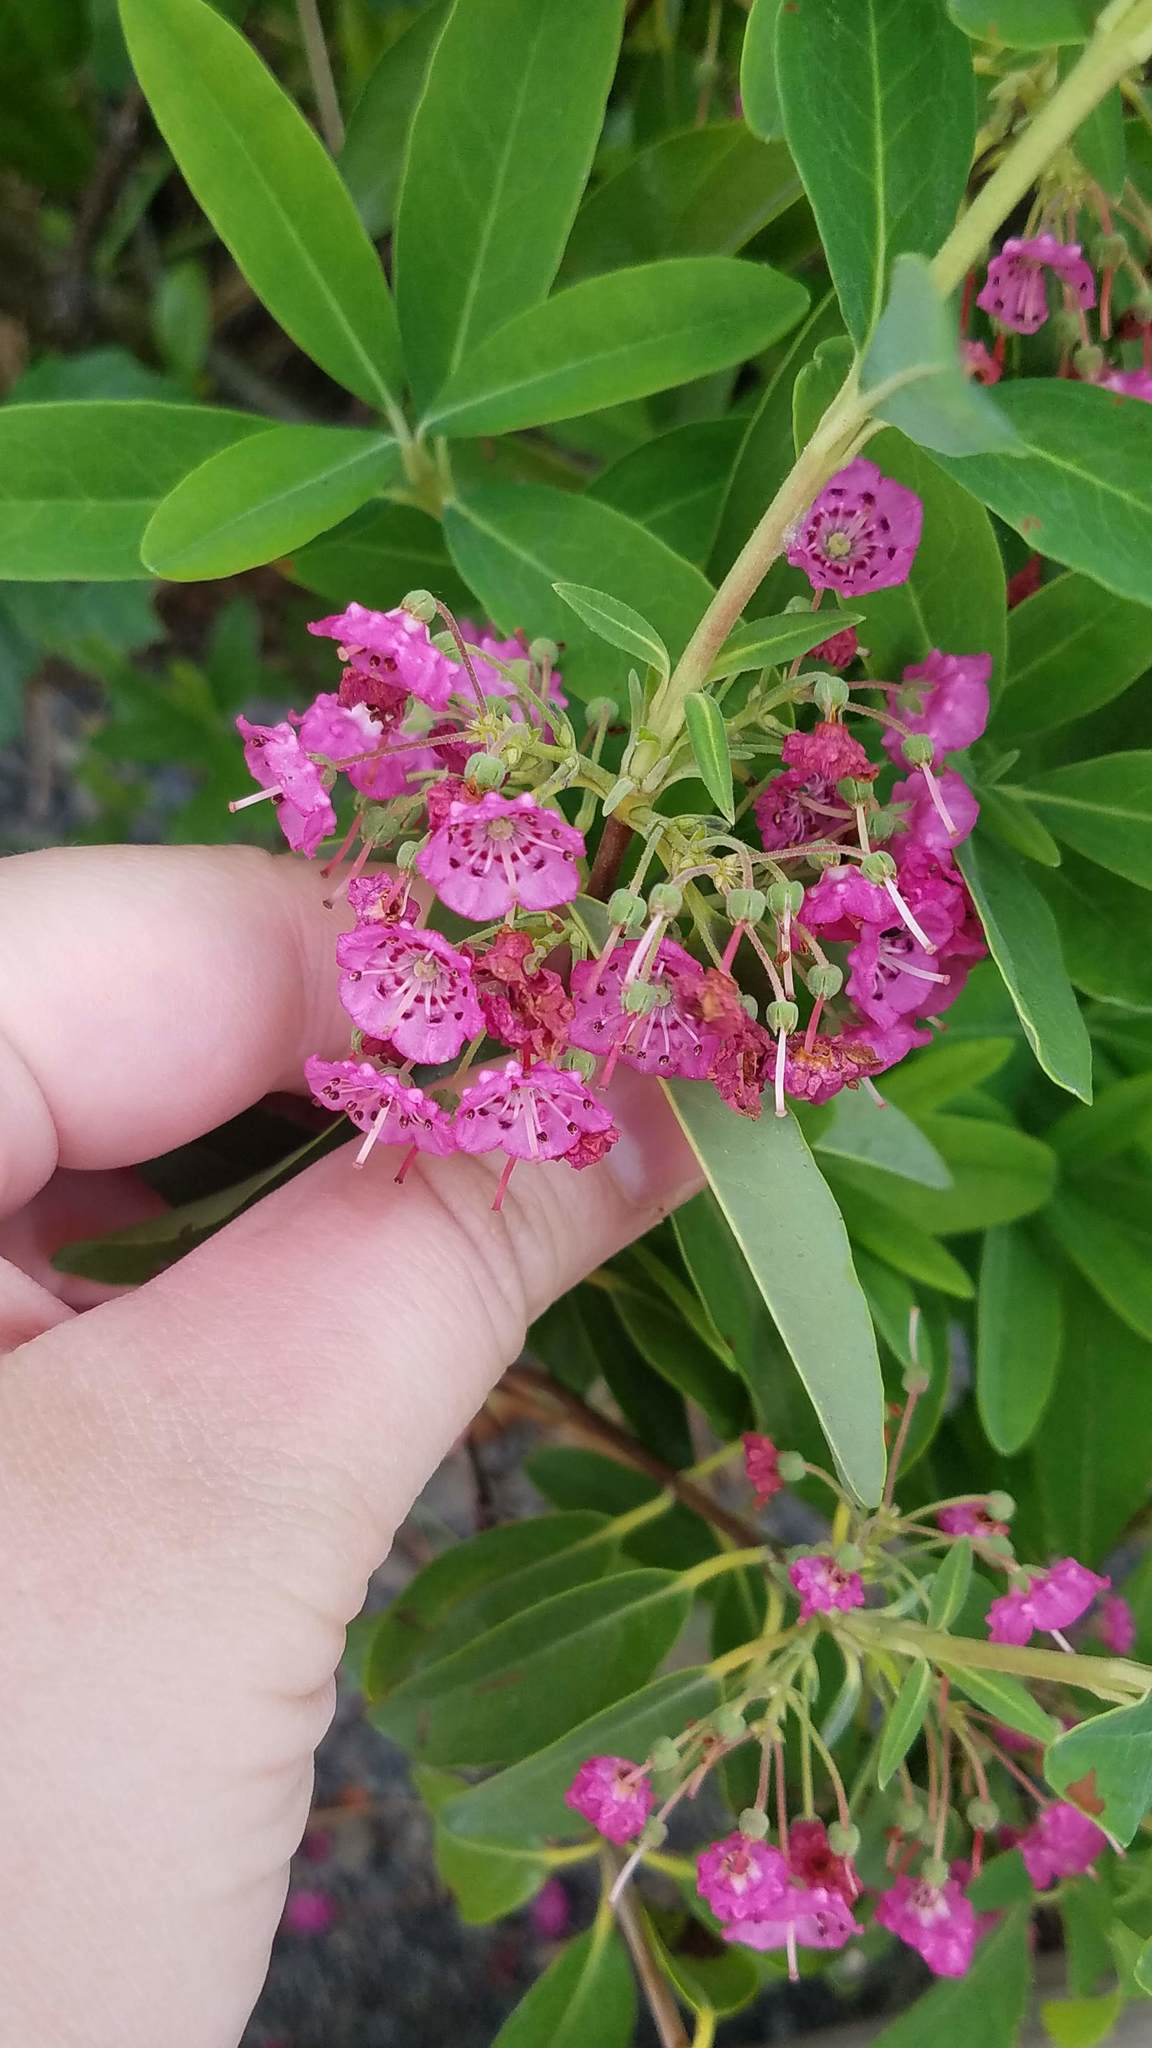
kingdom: Plantae
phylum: Tracheophyta
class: Magnoliopsida
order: Ericales
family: Ericaceae
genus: Kalmia
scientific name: Kalmia angustifolia
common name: Sheep-laurel
